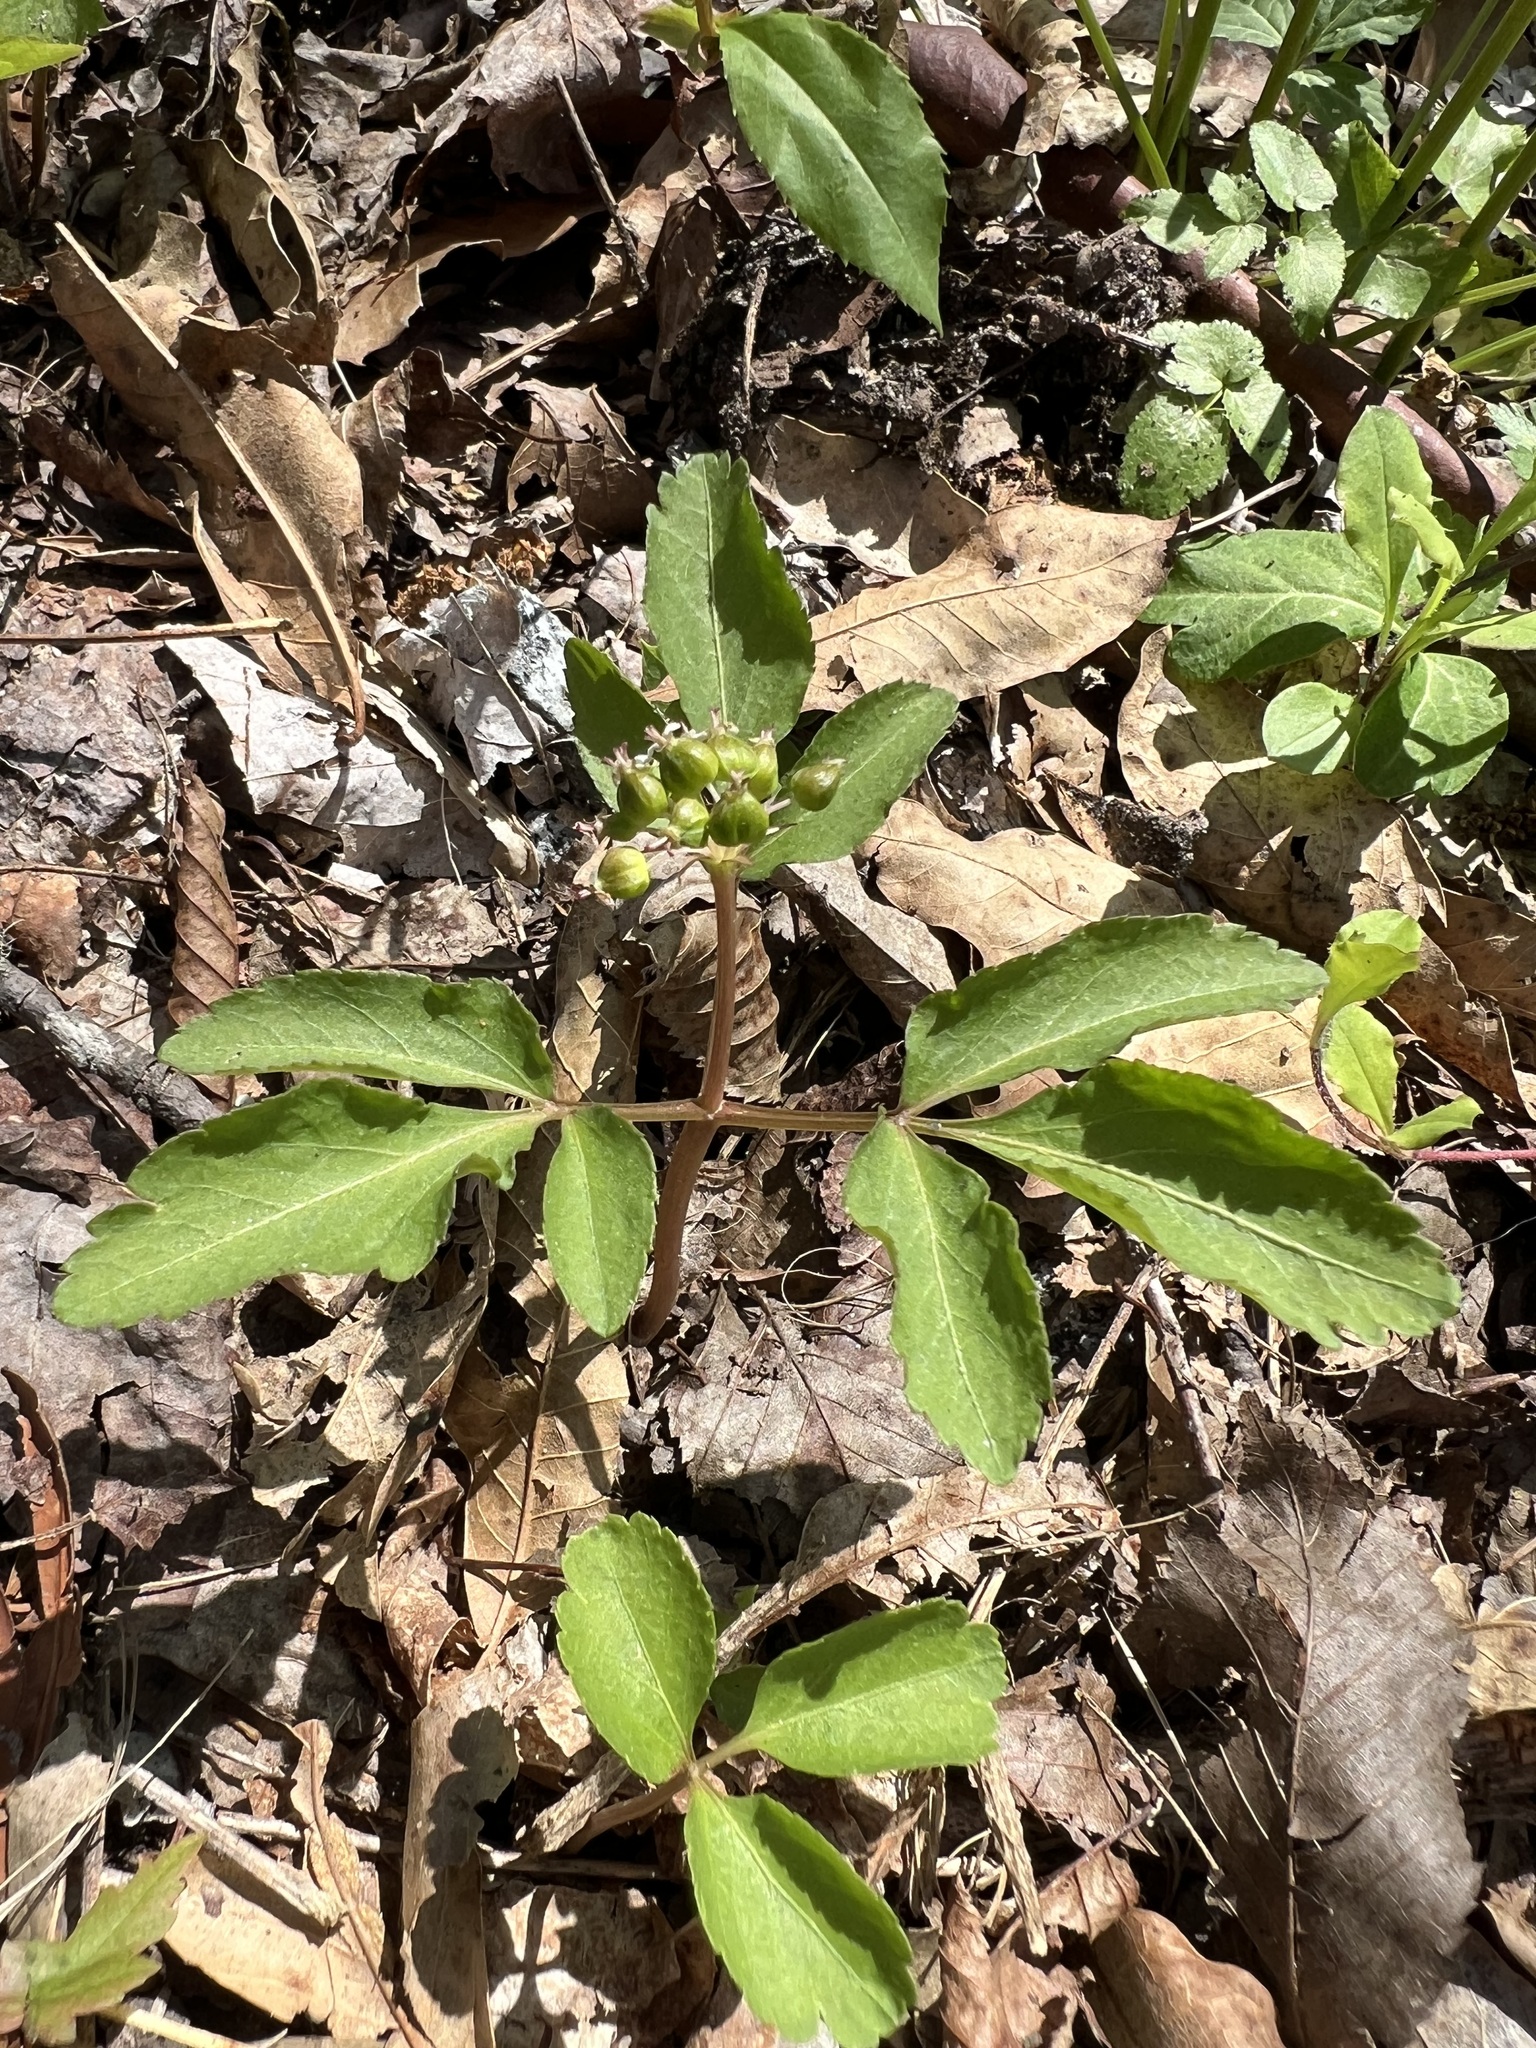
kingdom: Plantae
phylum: Tracheophyta
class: Magnoliopsida
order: Apiales
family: Araliaceae
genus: Panax
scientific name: Panax trifolius
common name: Dwarf ginseng
